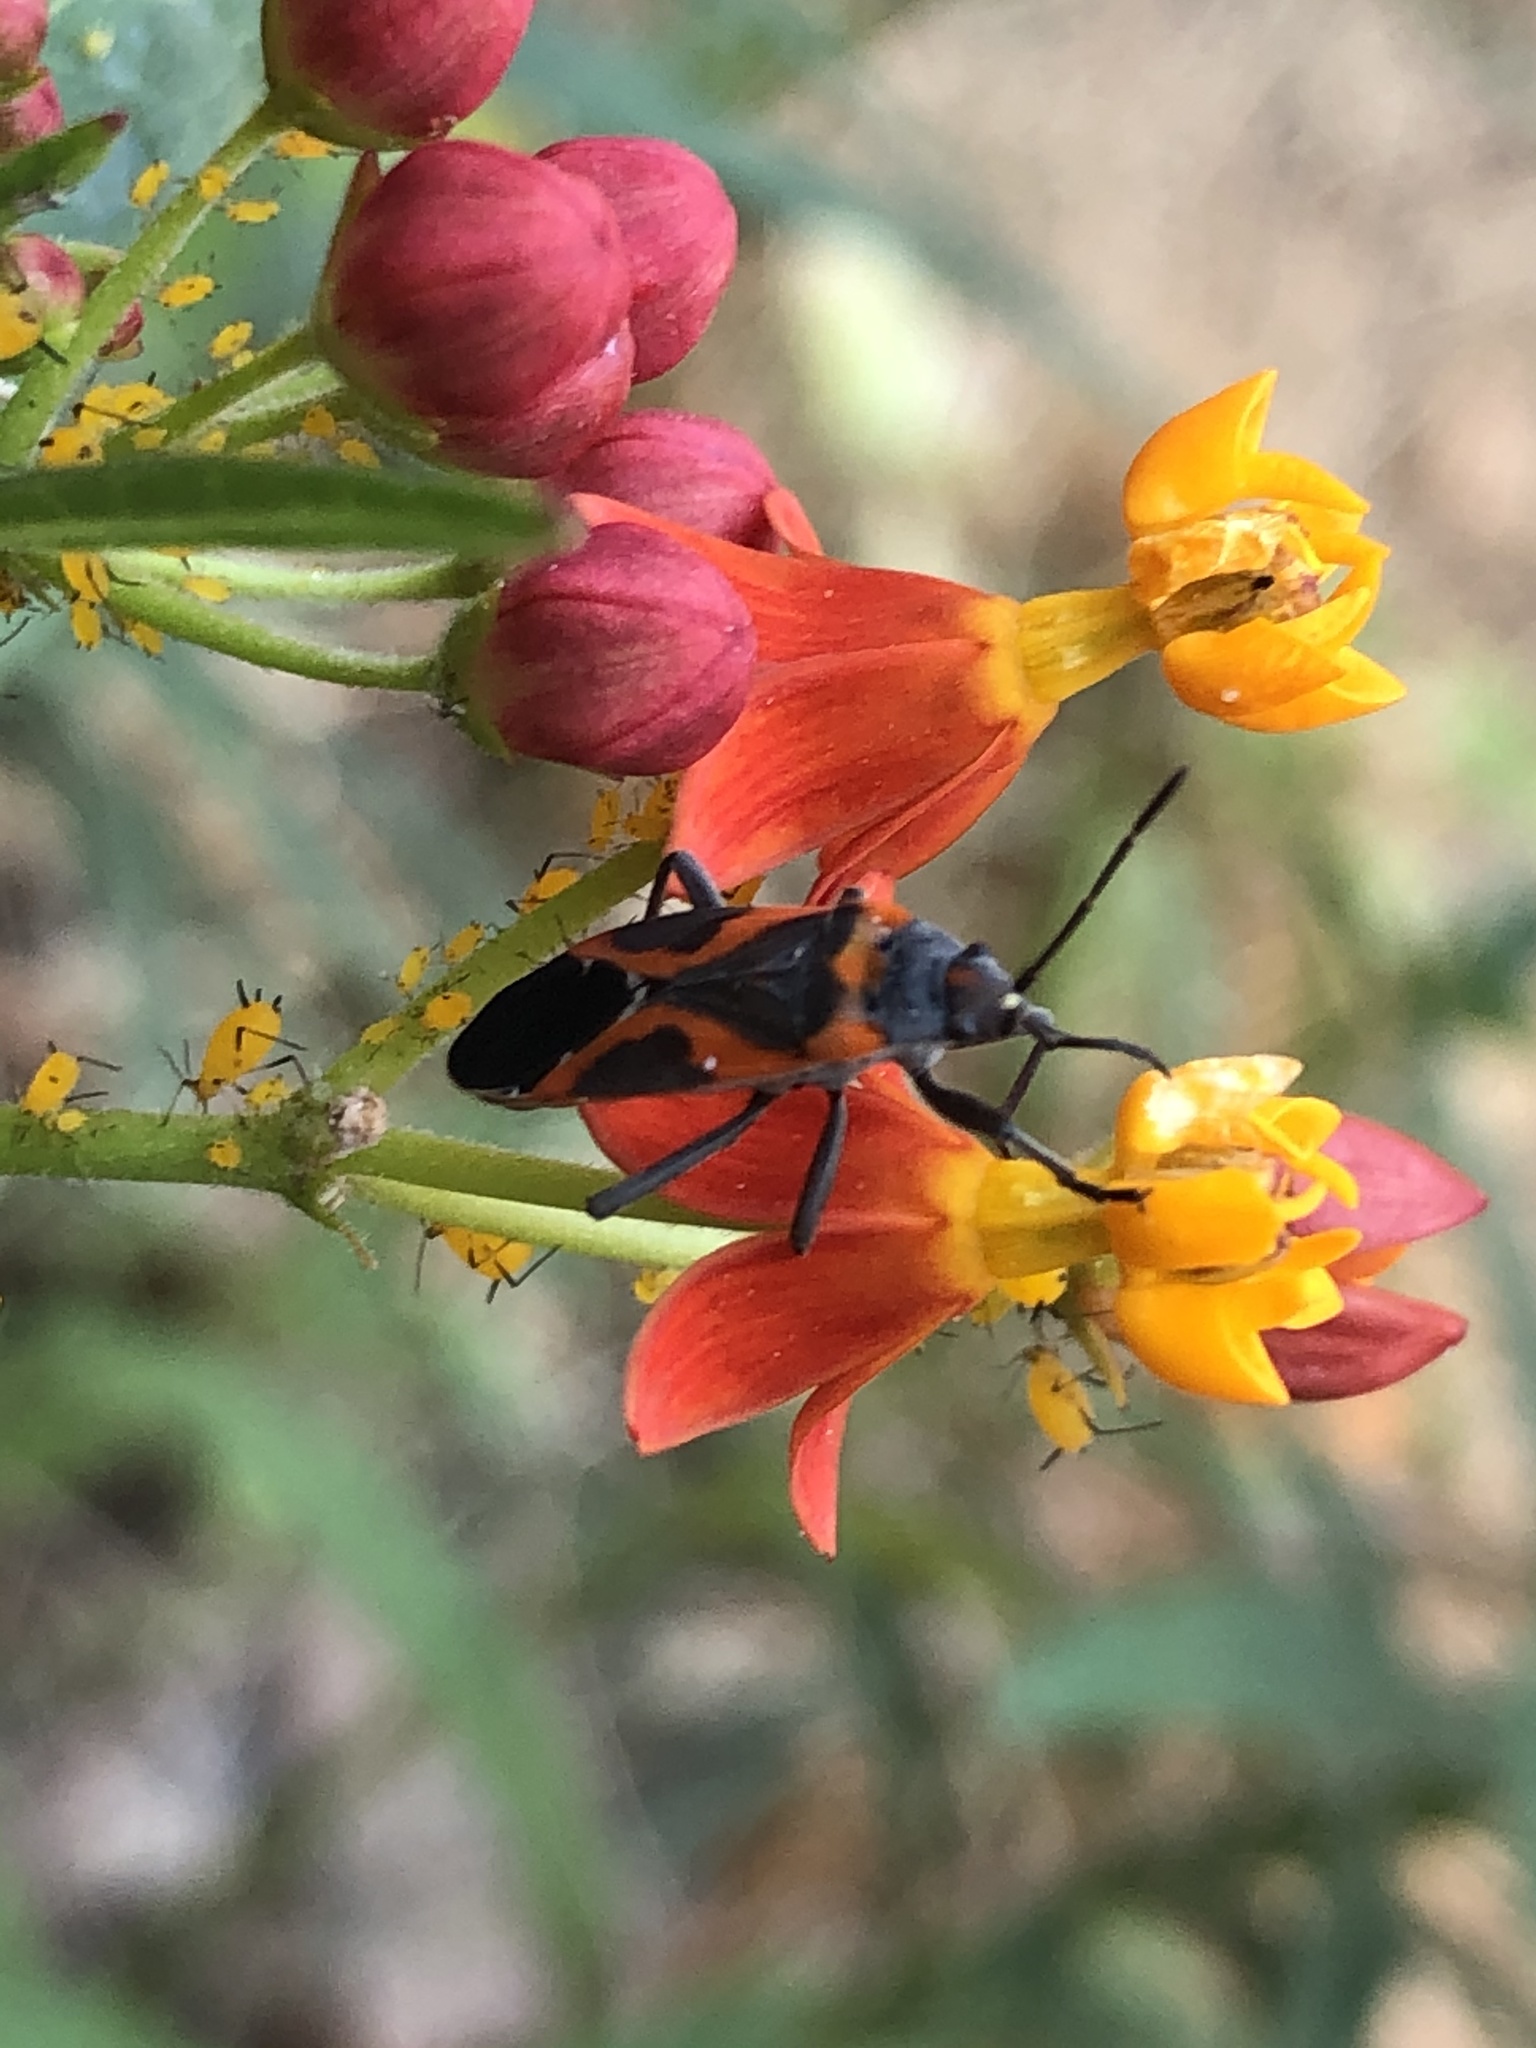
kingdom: Animalia
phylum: Arthropoda
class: Insecta
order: Hemiptera
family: Lygaeidae
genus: Lygaeus
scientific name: Lygaeus kalmii
